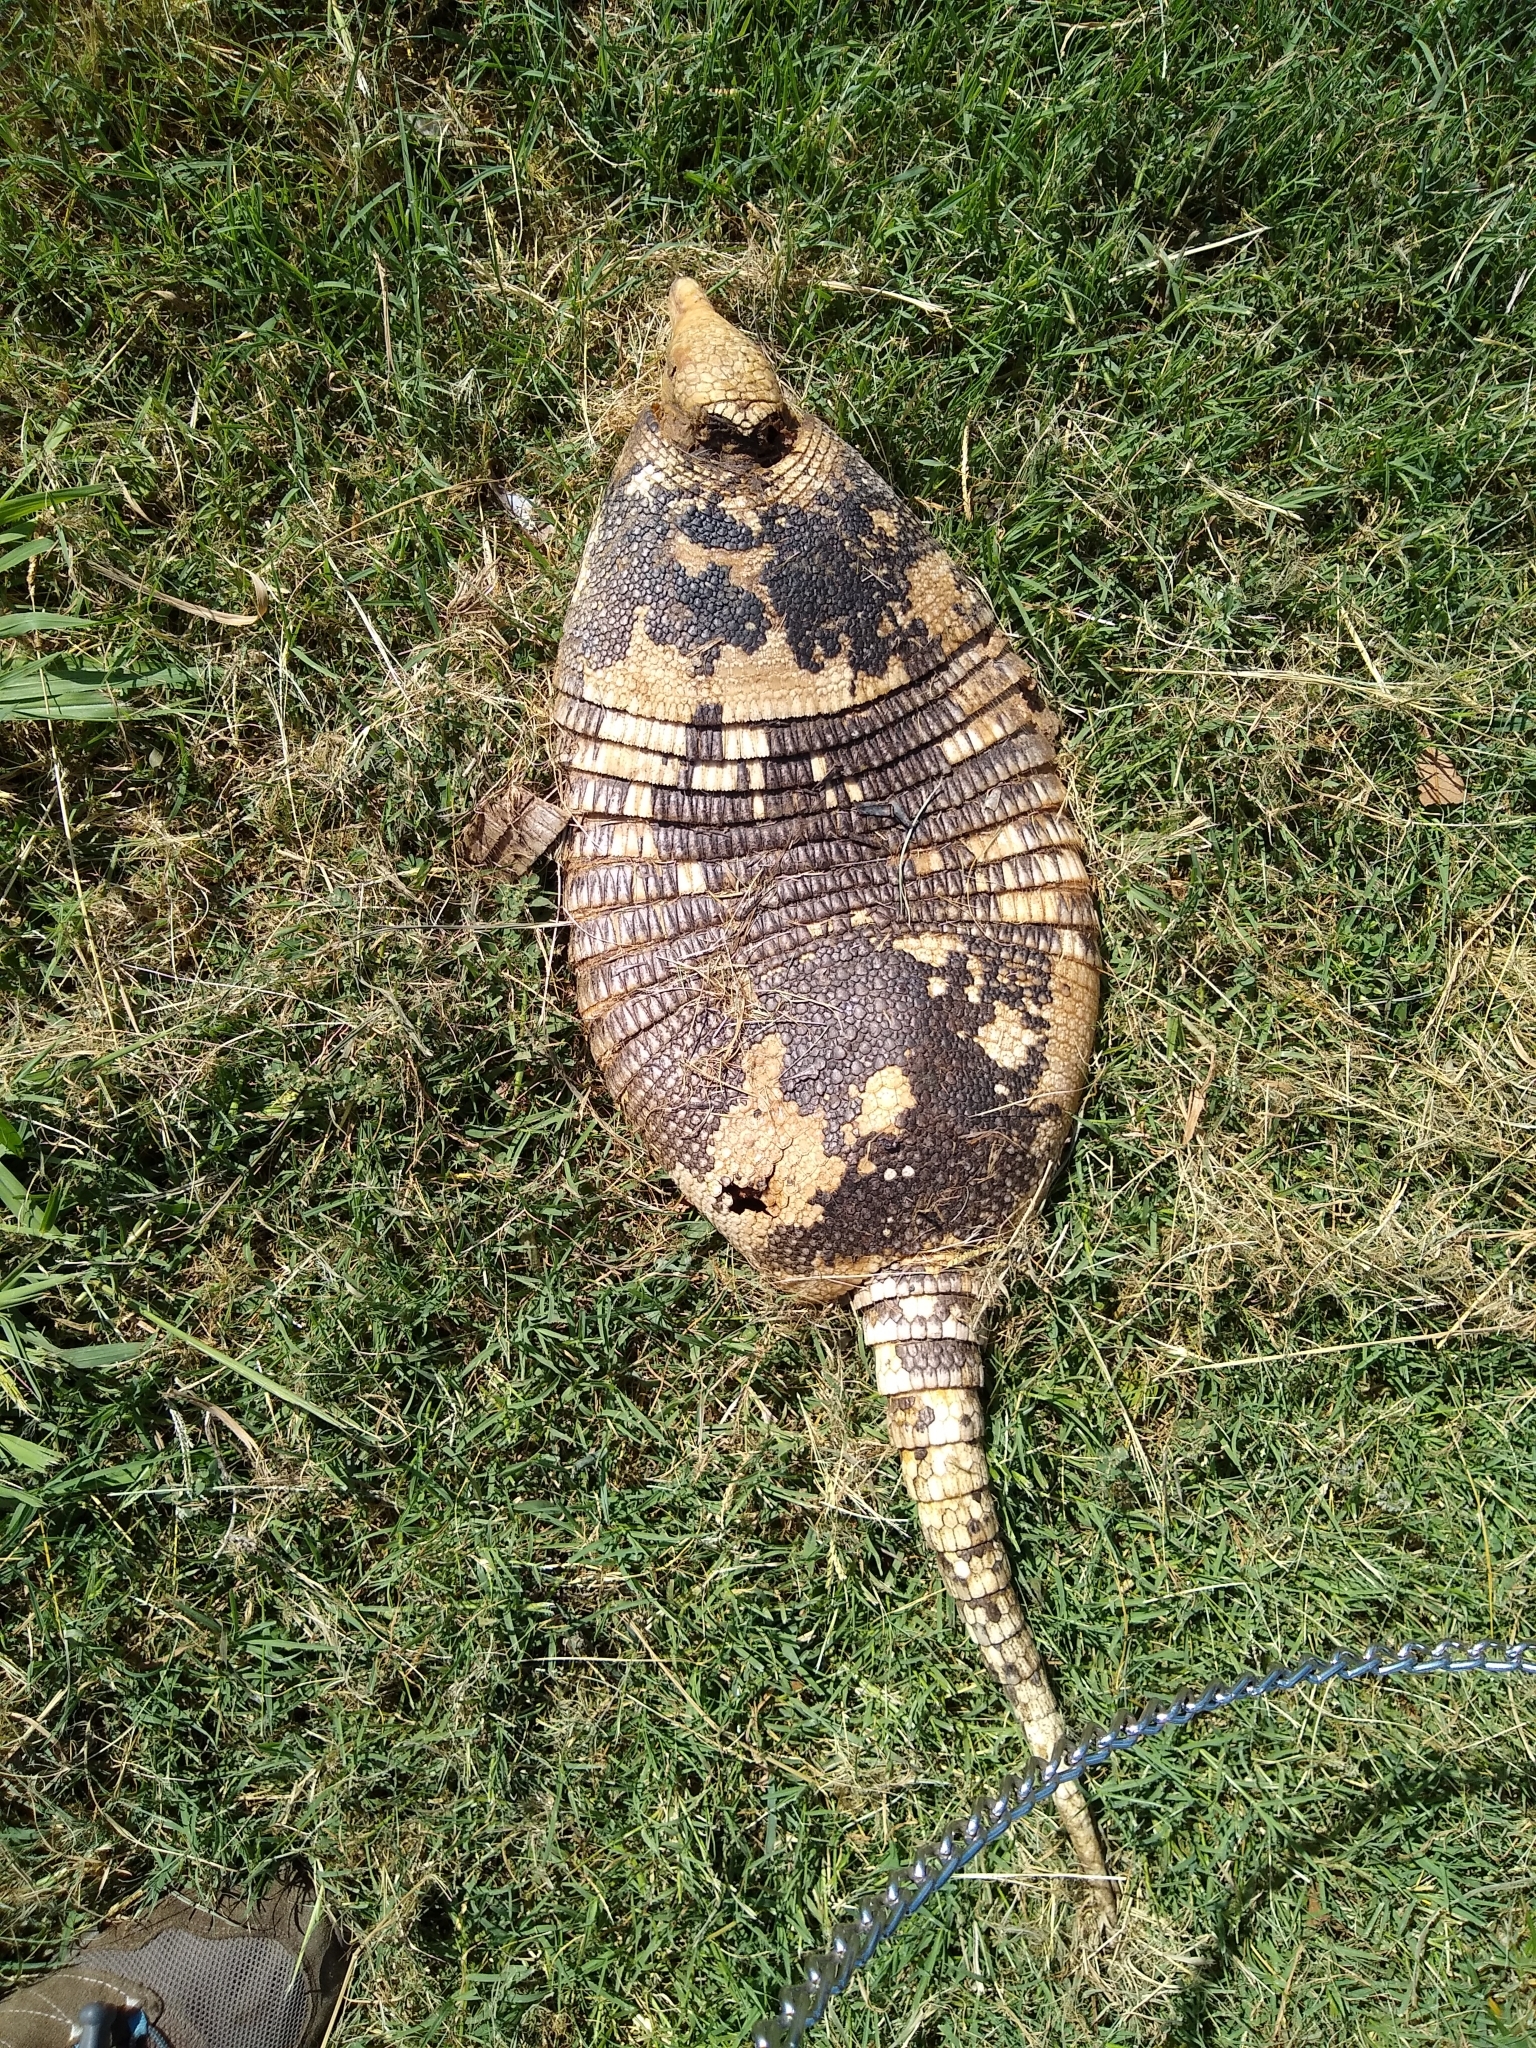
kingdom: Animalia
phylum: Chordata
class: Mammalia
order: Cingulata
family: Dasypodidae
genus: Dasypus
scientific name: Dasypus novemcinctus
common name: Nine-banded armadillo
